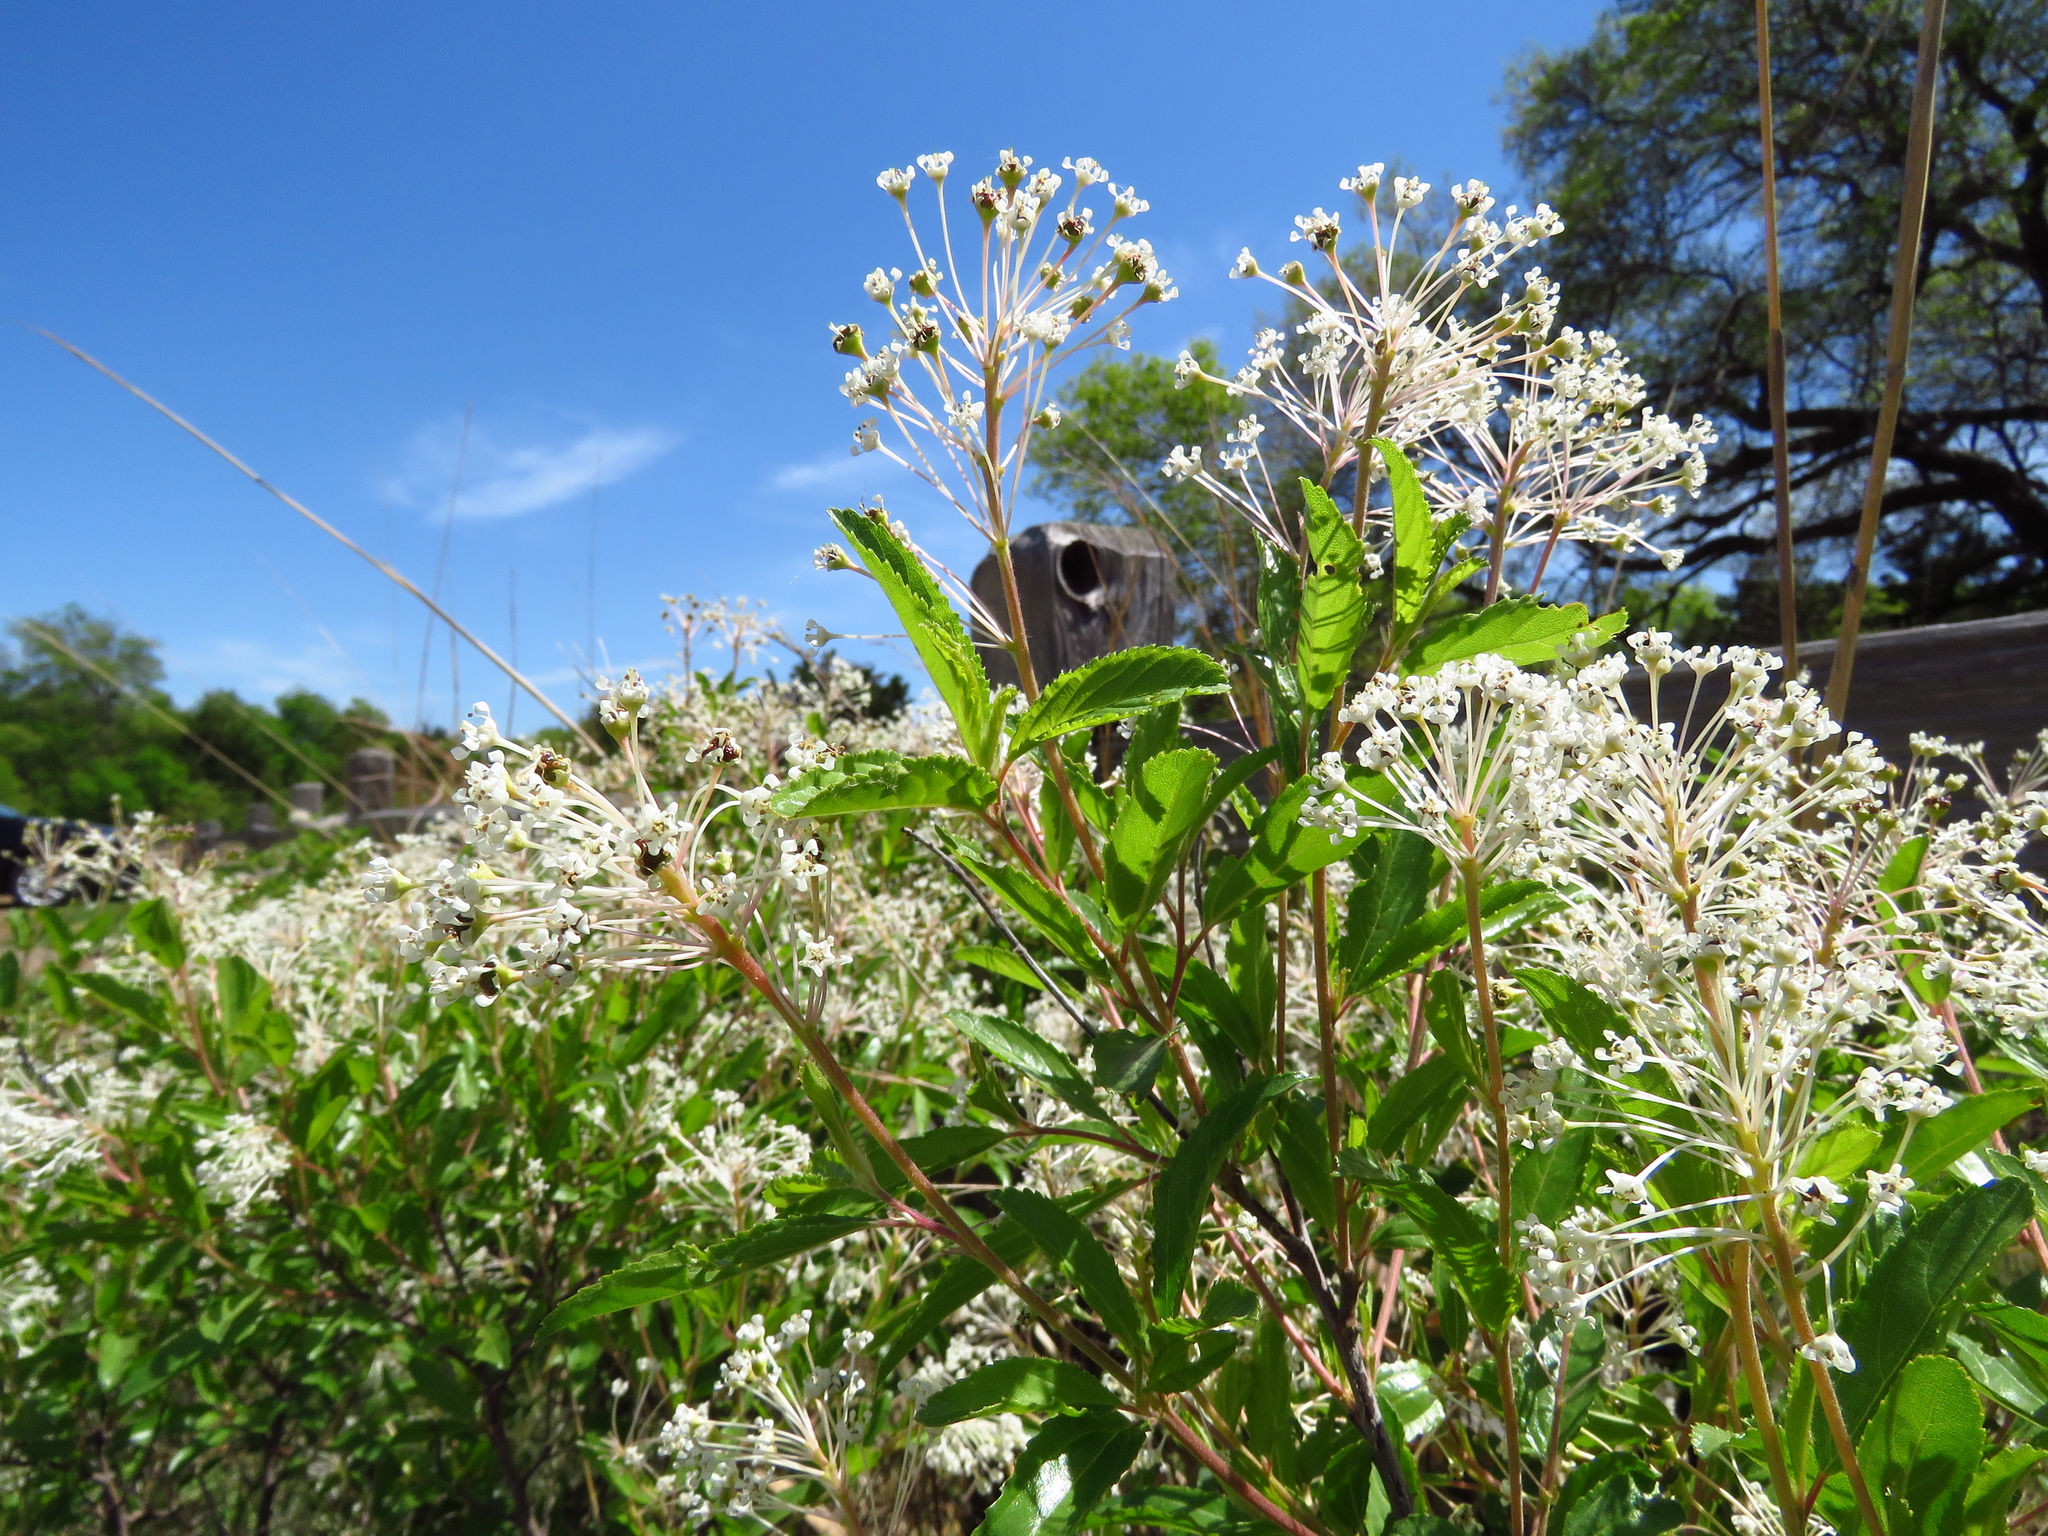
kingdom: Plantae
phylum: Tracheophyta
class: Magnoliopsida
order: Rosales
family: Rhamnaceae
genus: Ceanothus
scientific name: Ceanothus herbaceus
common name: Inland ceanothus
